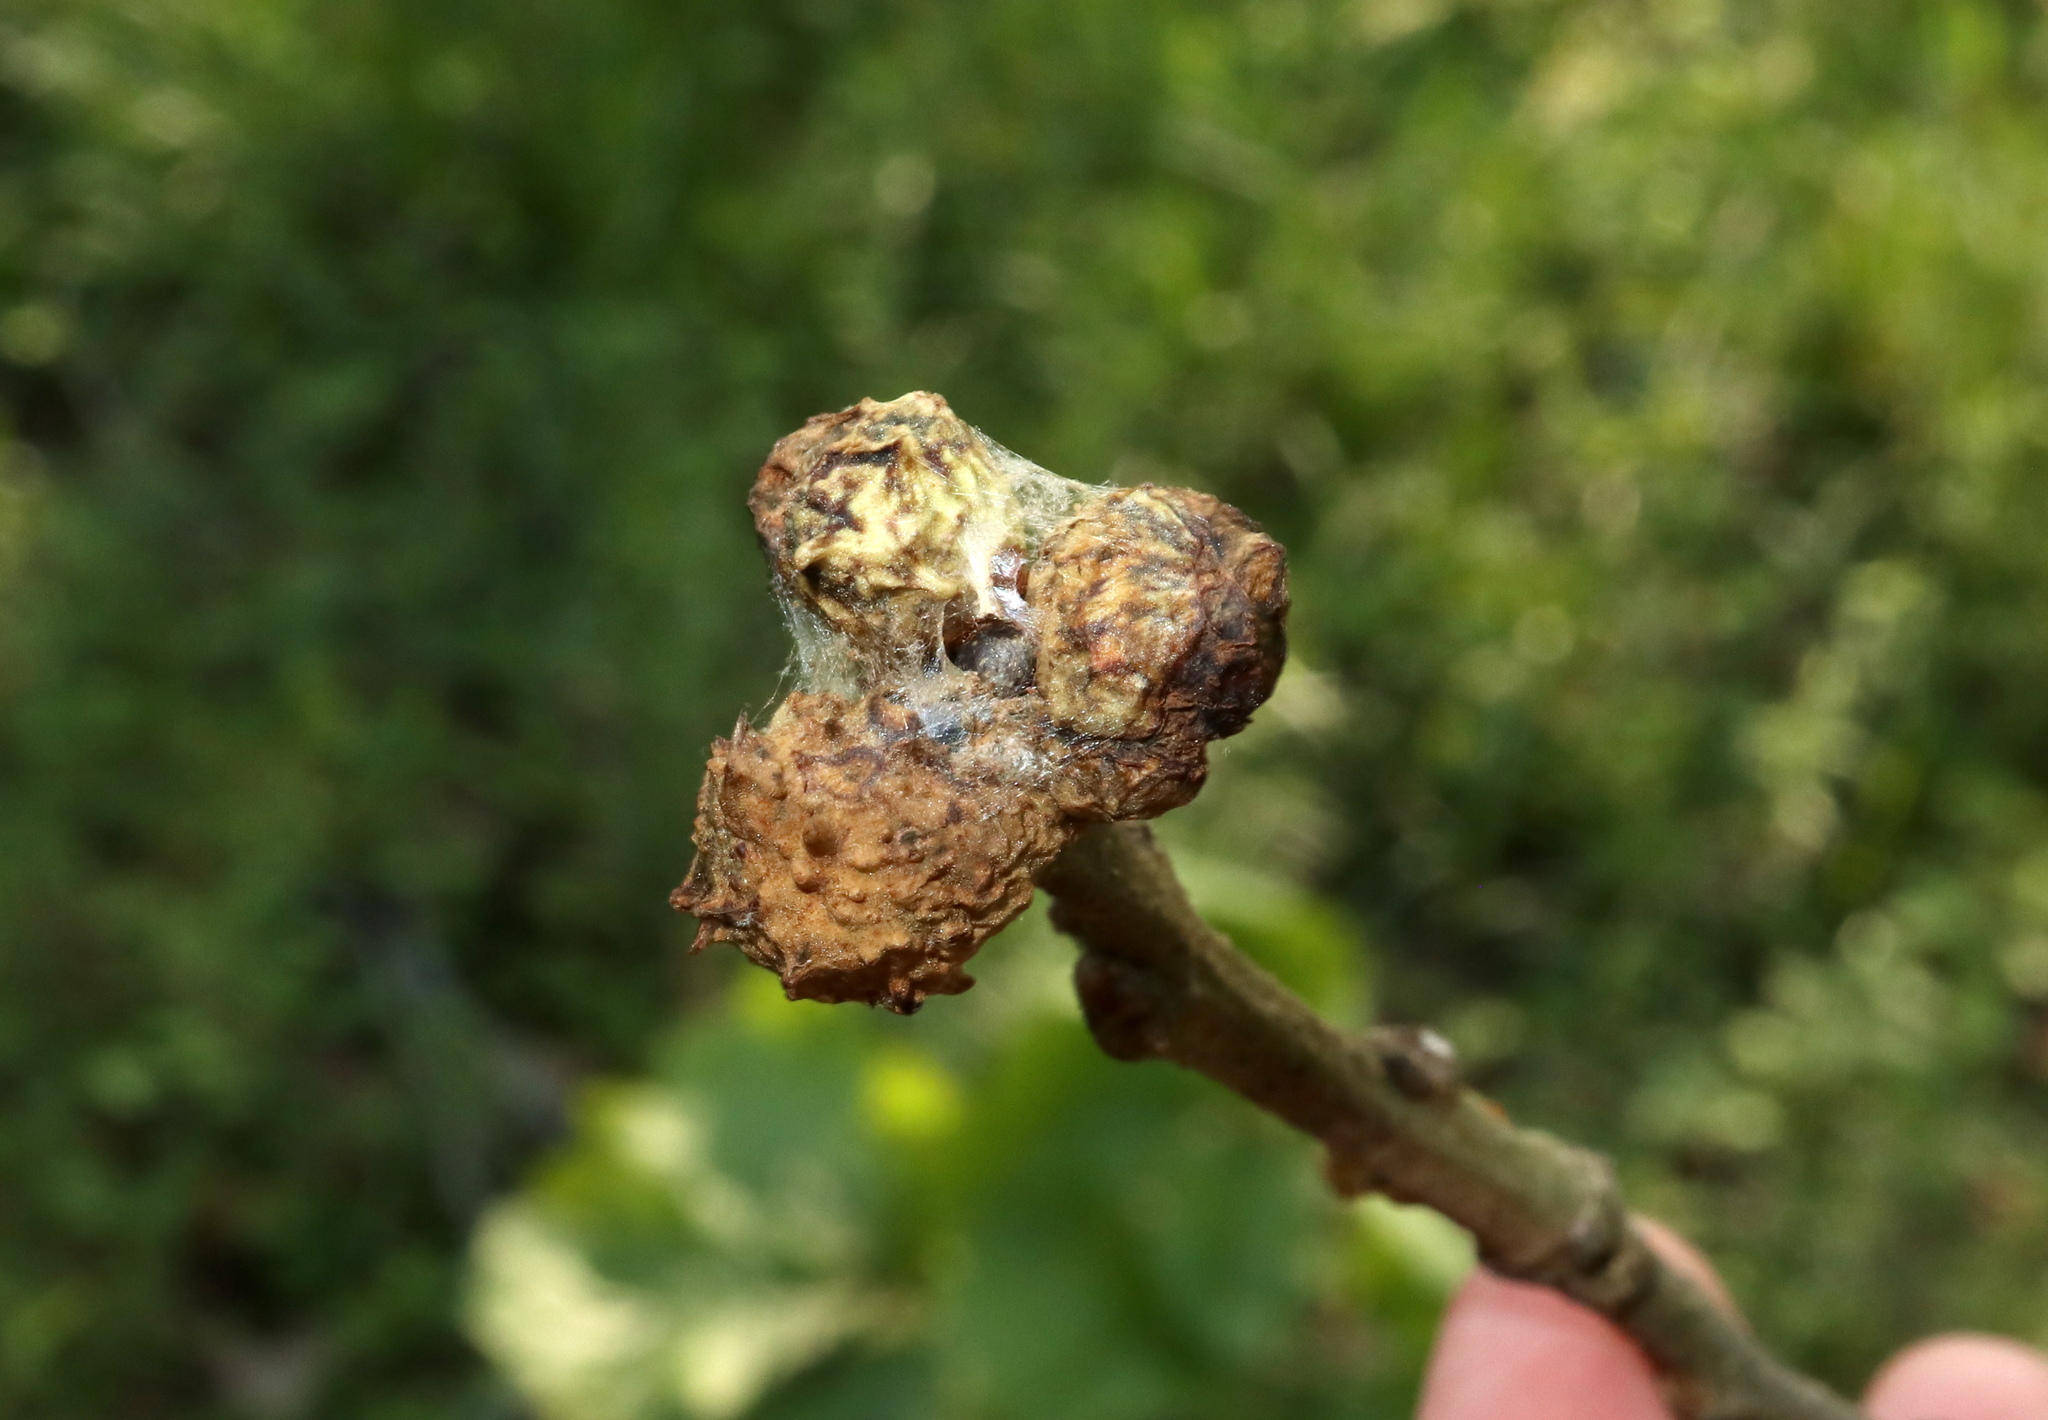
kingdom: Animalia
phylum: Arthropoda
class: Insecta
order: Hymenoptera
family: Cynipidae
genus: Andricus
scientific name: Andricus
